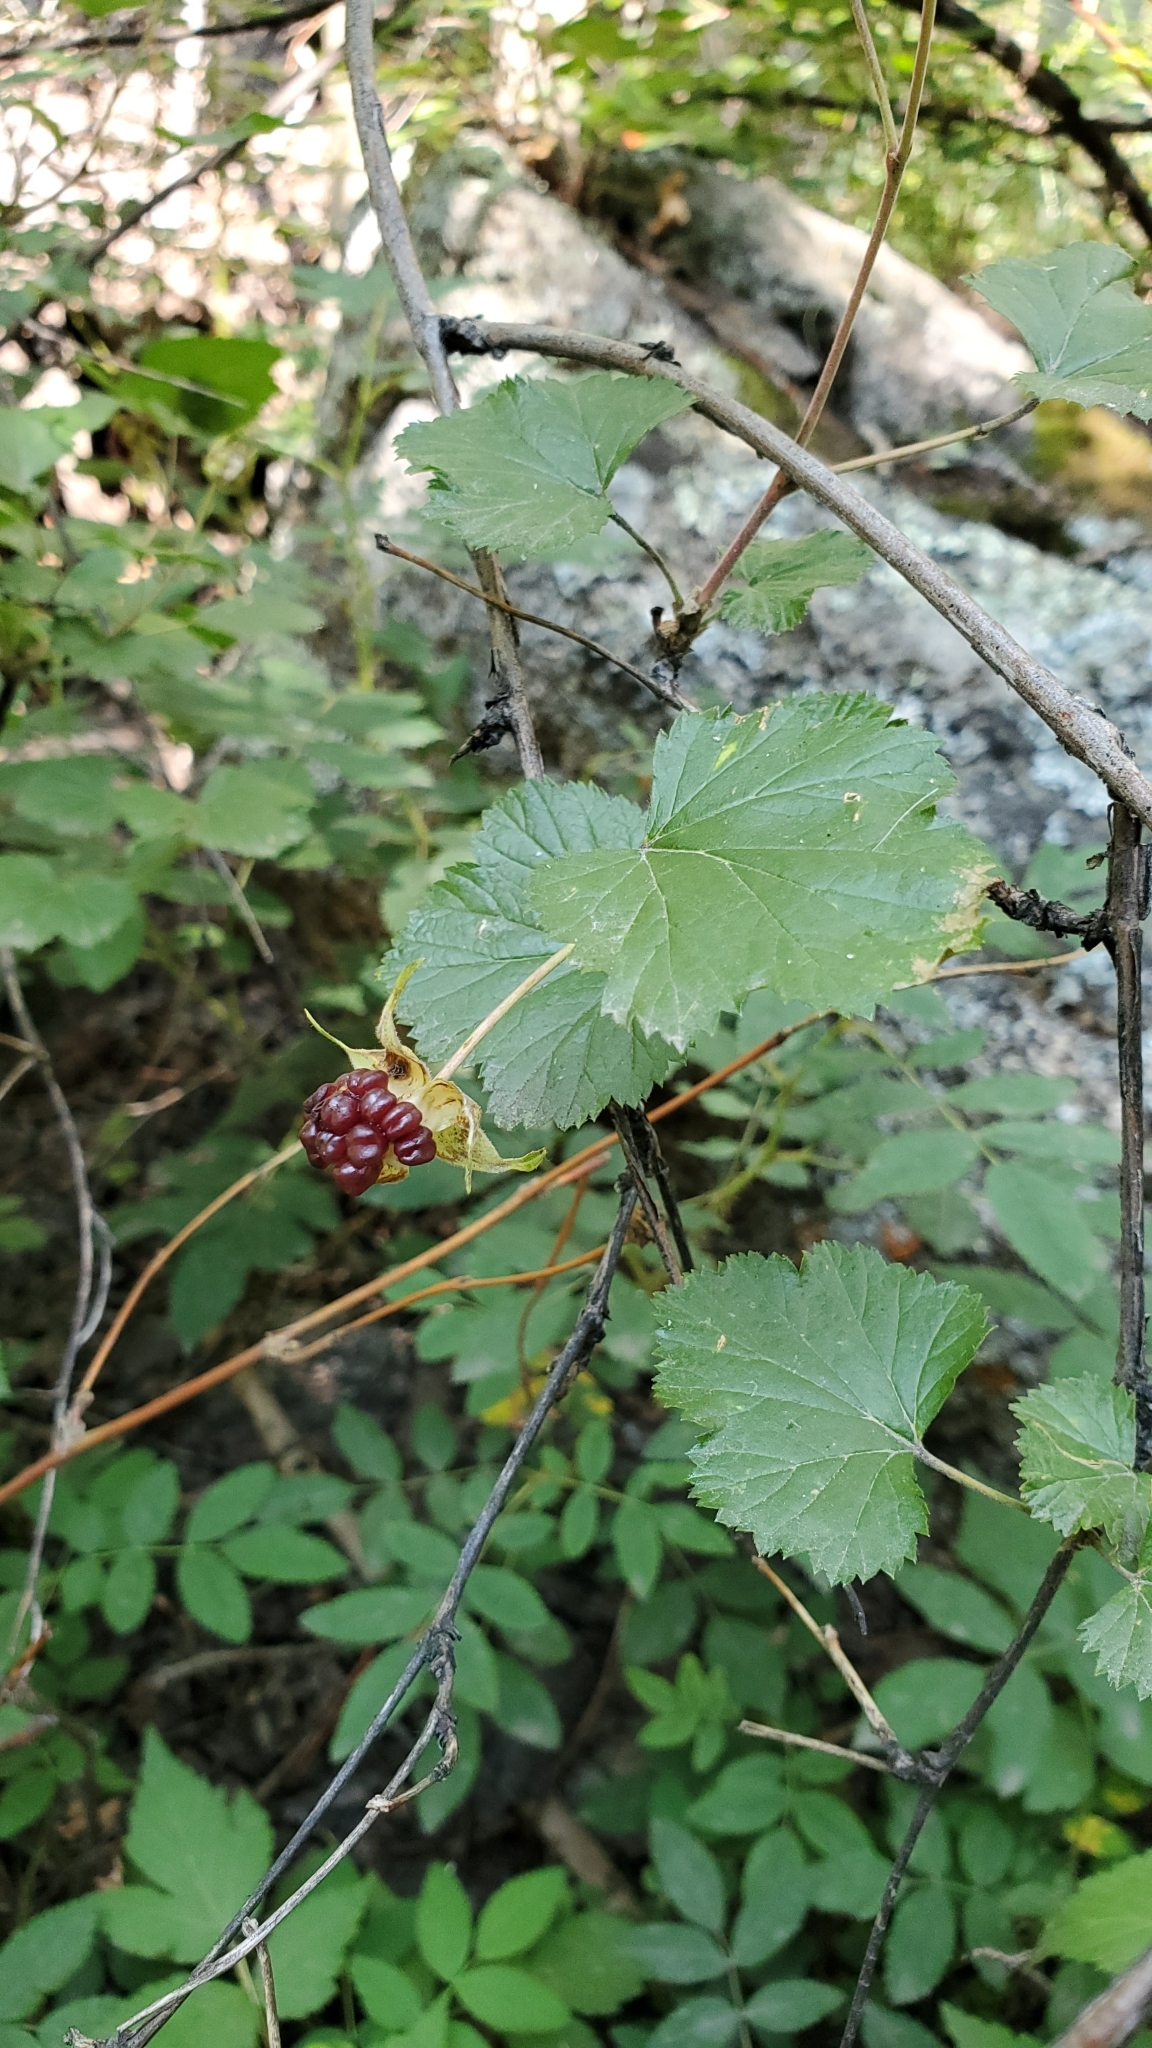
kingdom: Plantae
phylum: Tracheophyta
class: Magnoliopsida
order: Rosales
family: Rosaceae
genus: Rubus
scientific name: Rubus deliciosus
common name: Rocky mountain raspberry
